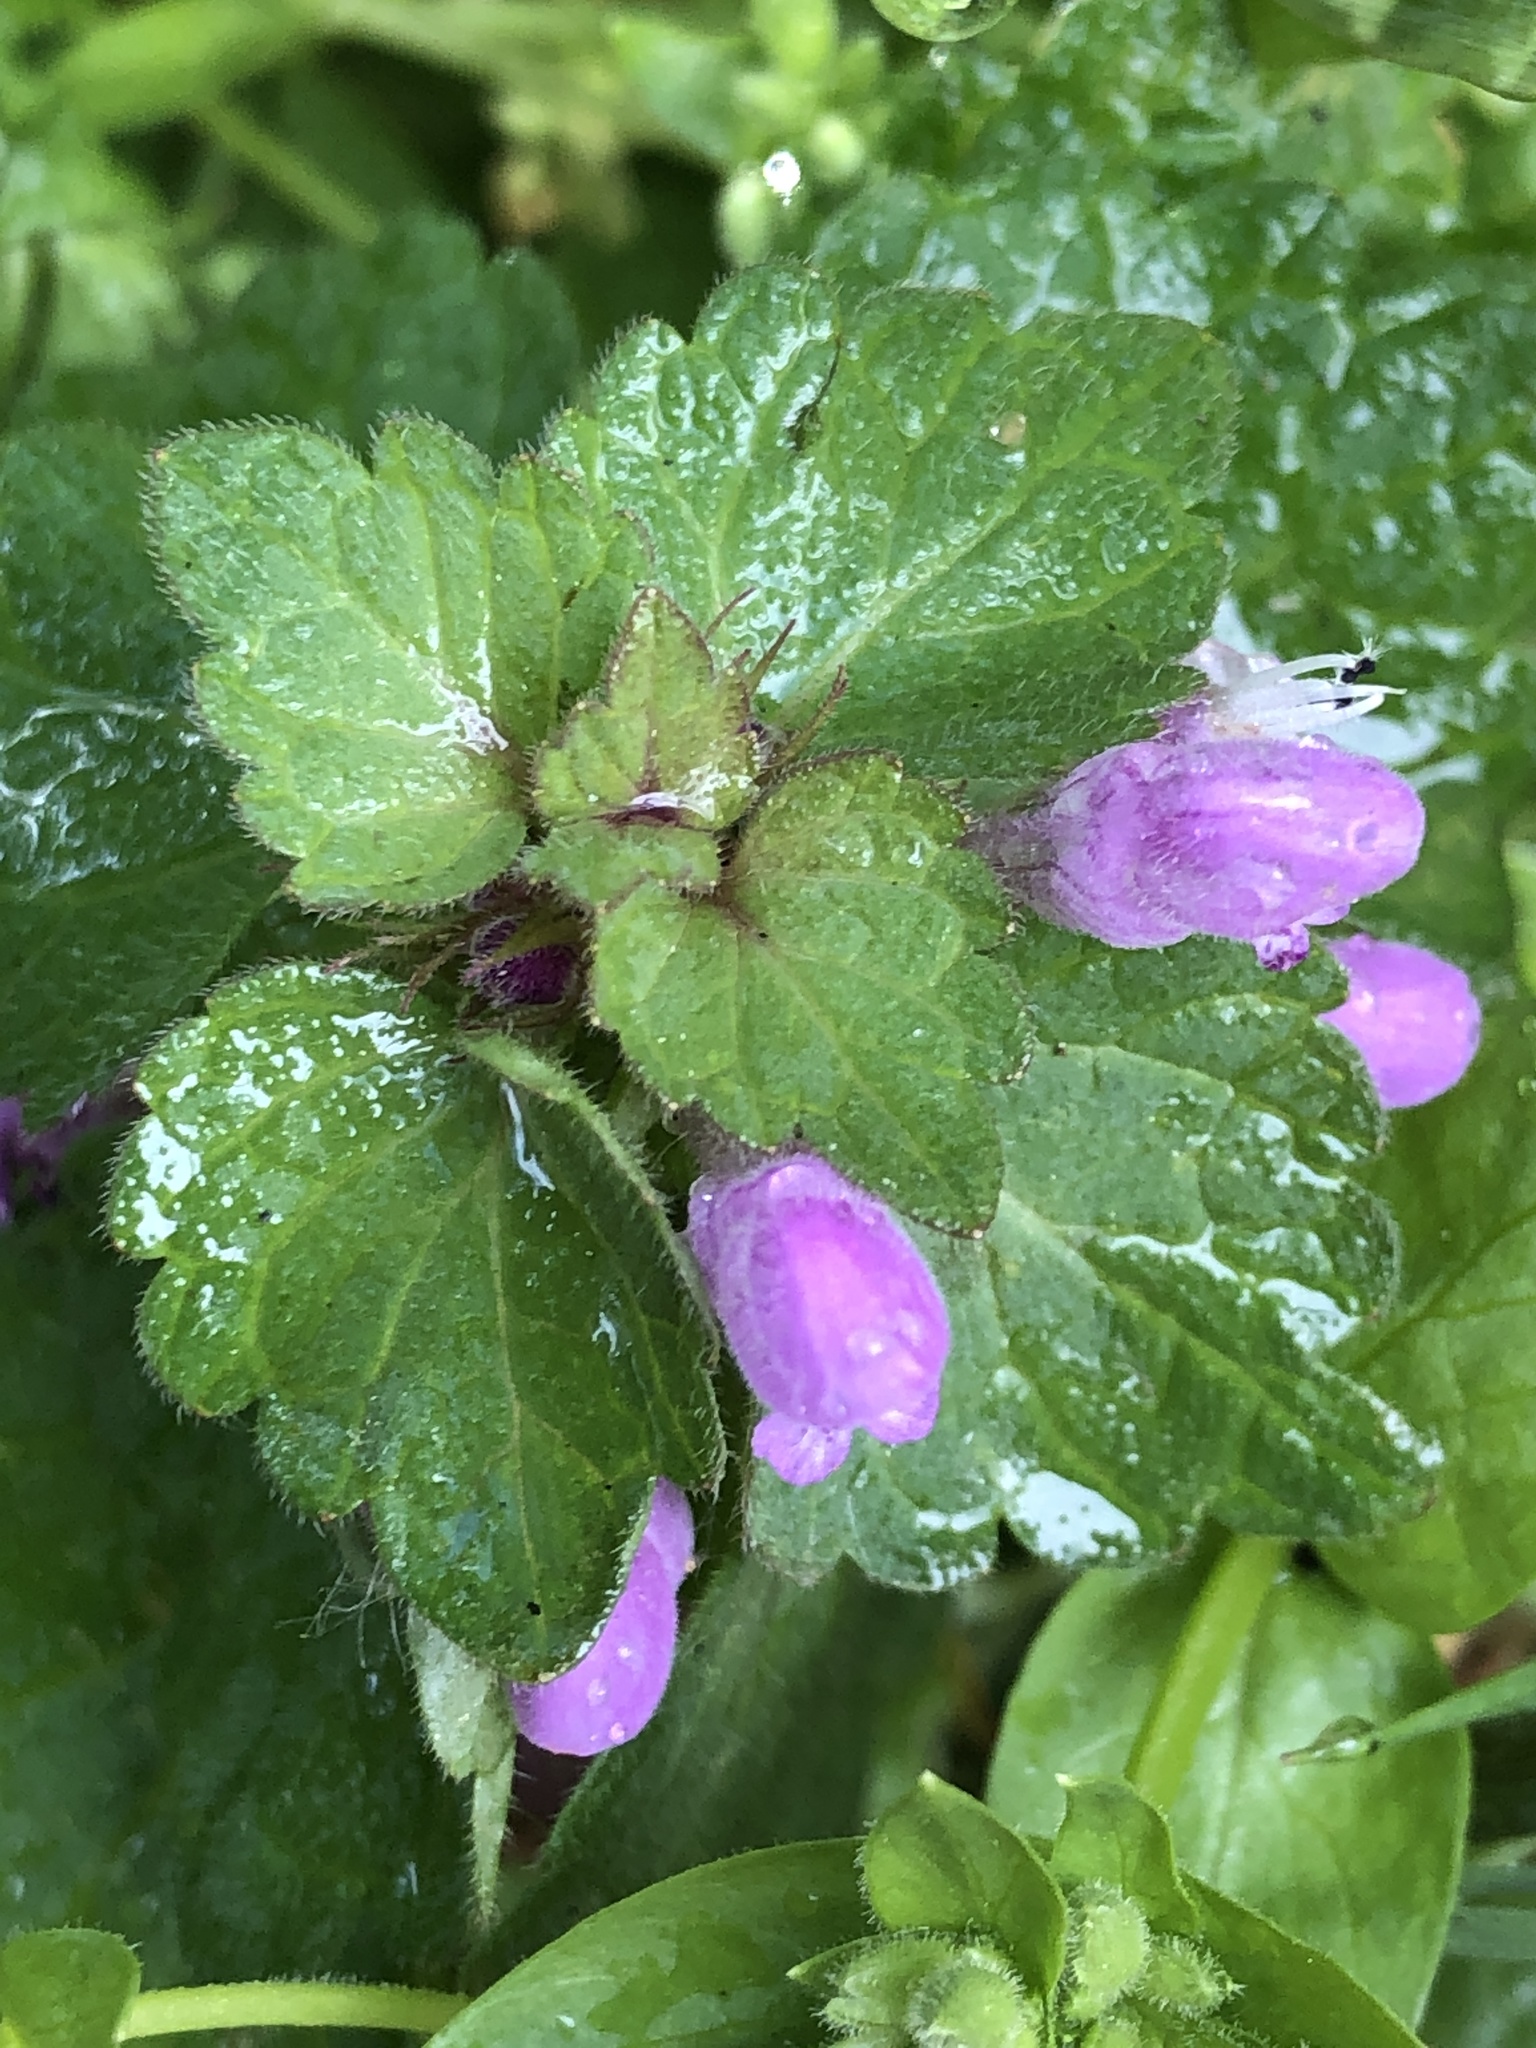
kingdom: Plantae
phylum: Tracheophyta
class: Magnoliopsida
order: Lamiales
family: Lamiaceae
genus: Lamium
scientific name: Lamium maculatum
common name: Spotted dead-nettle
